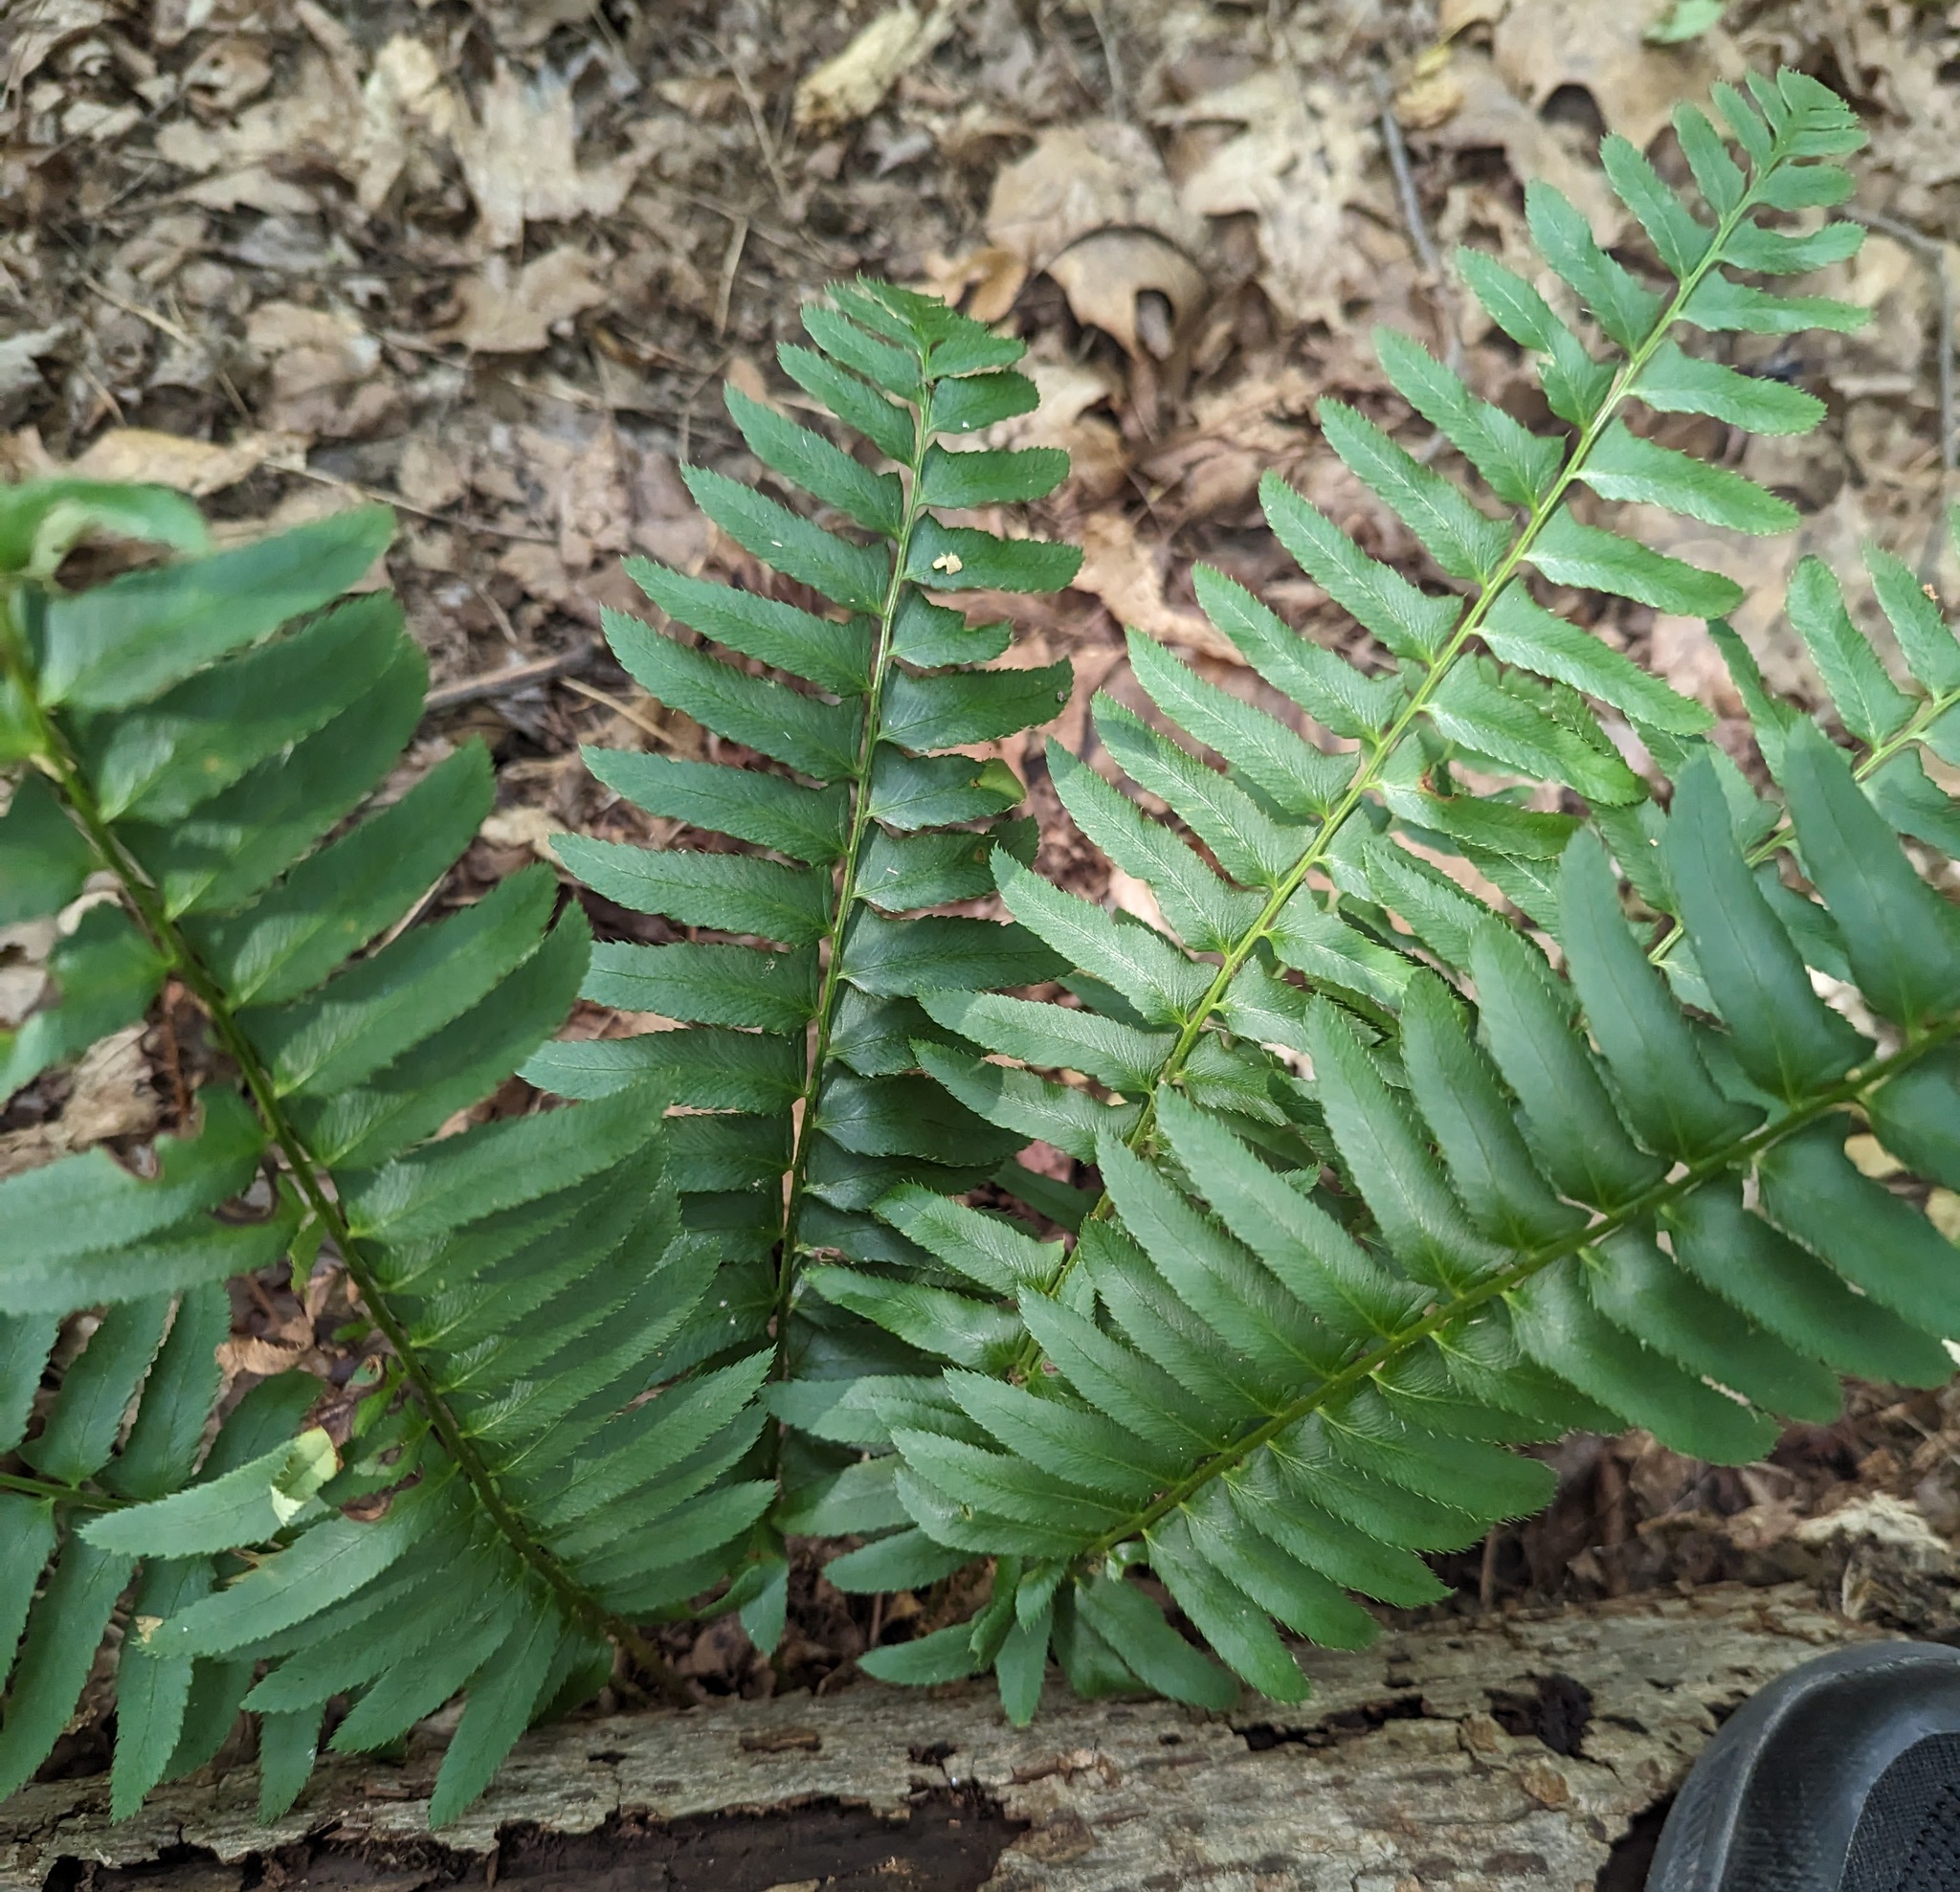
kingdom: Plantae
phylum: Tracheophyta
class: Polypodiopsida
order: Polypodiales
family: Dryopteridaceae
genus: Polystichum
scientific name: Polystichum acrostichoides
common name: Christmas fern
